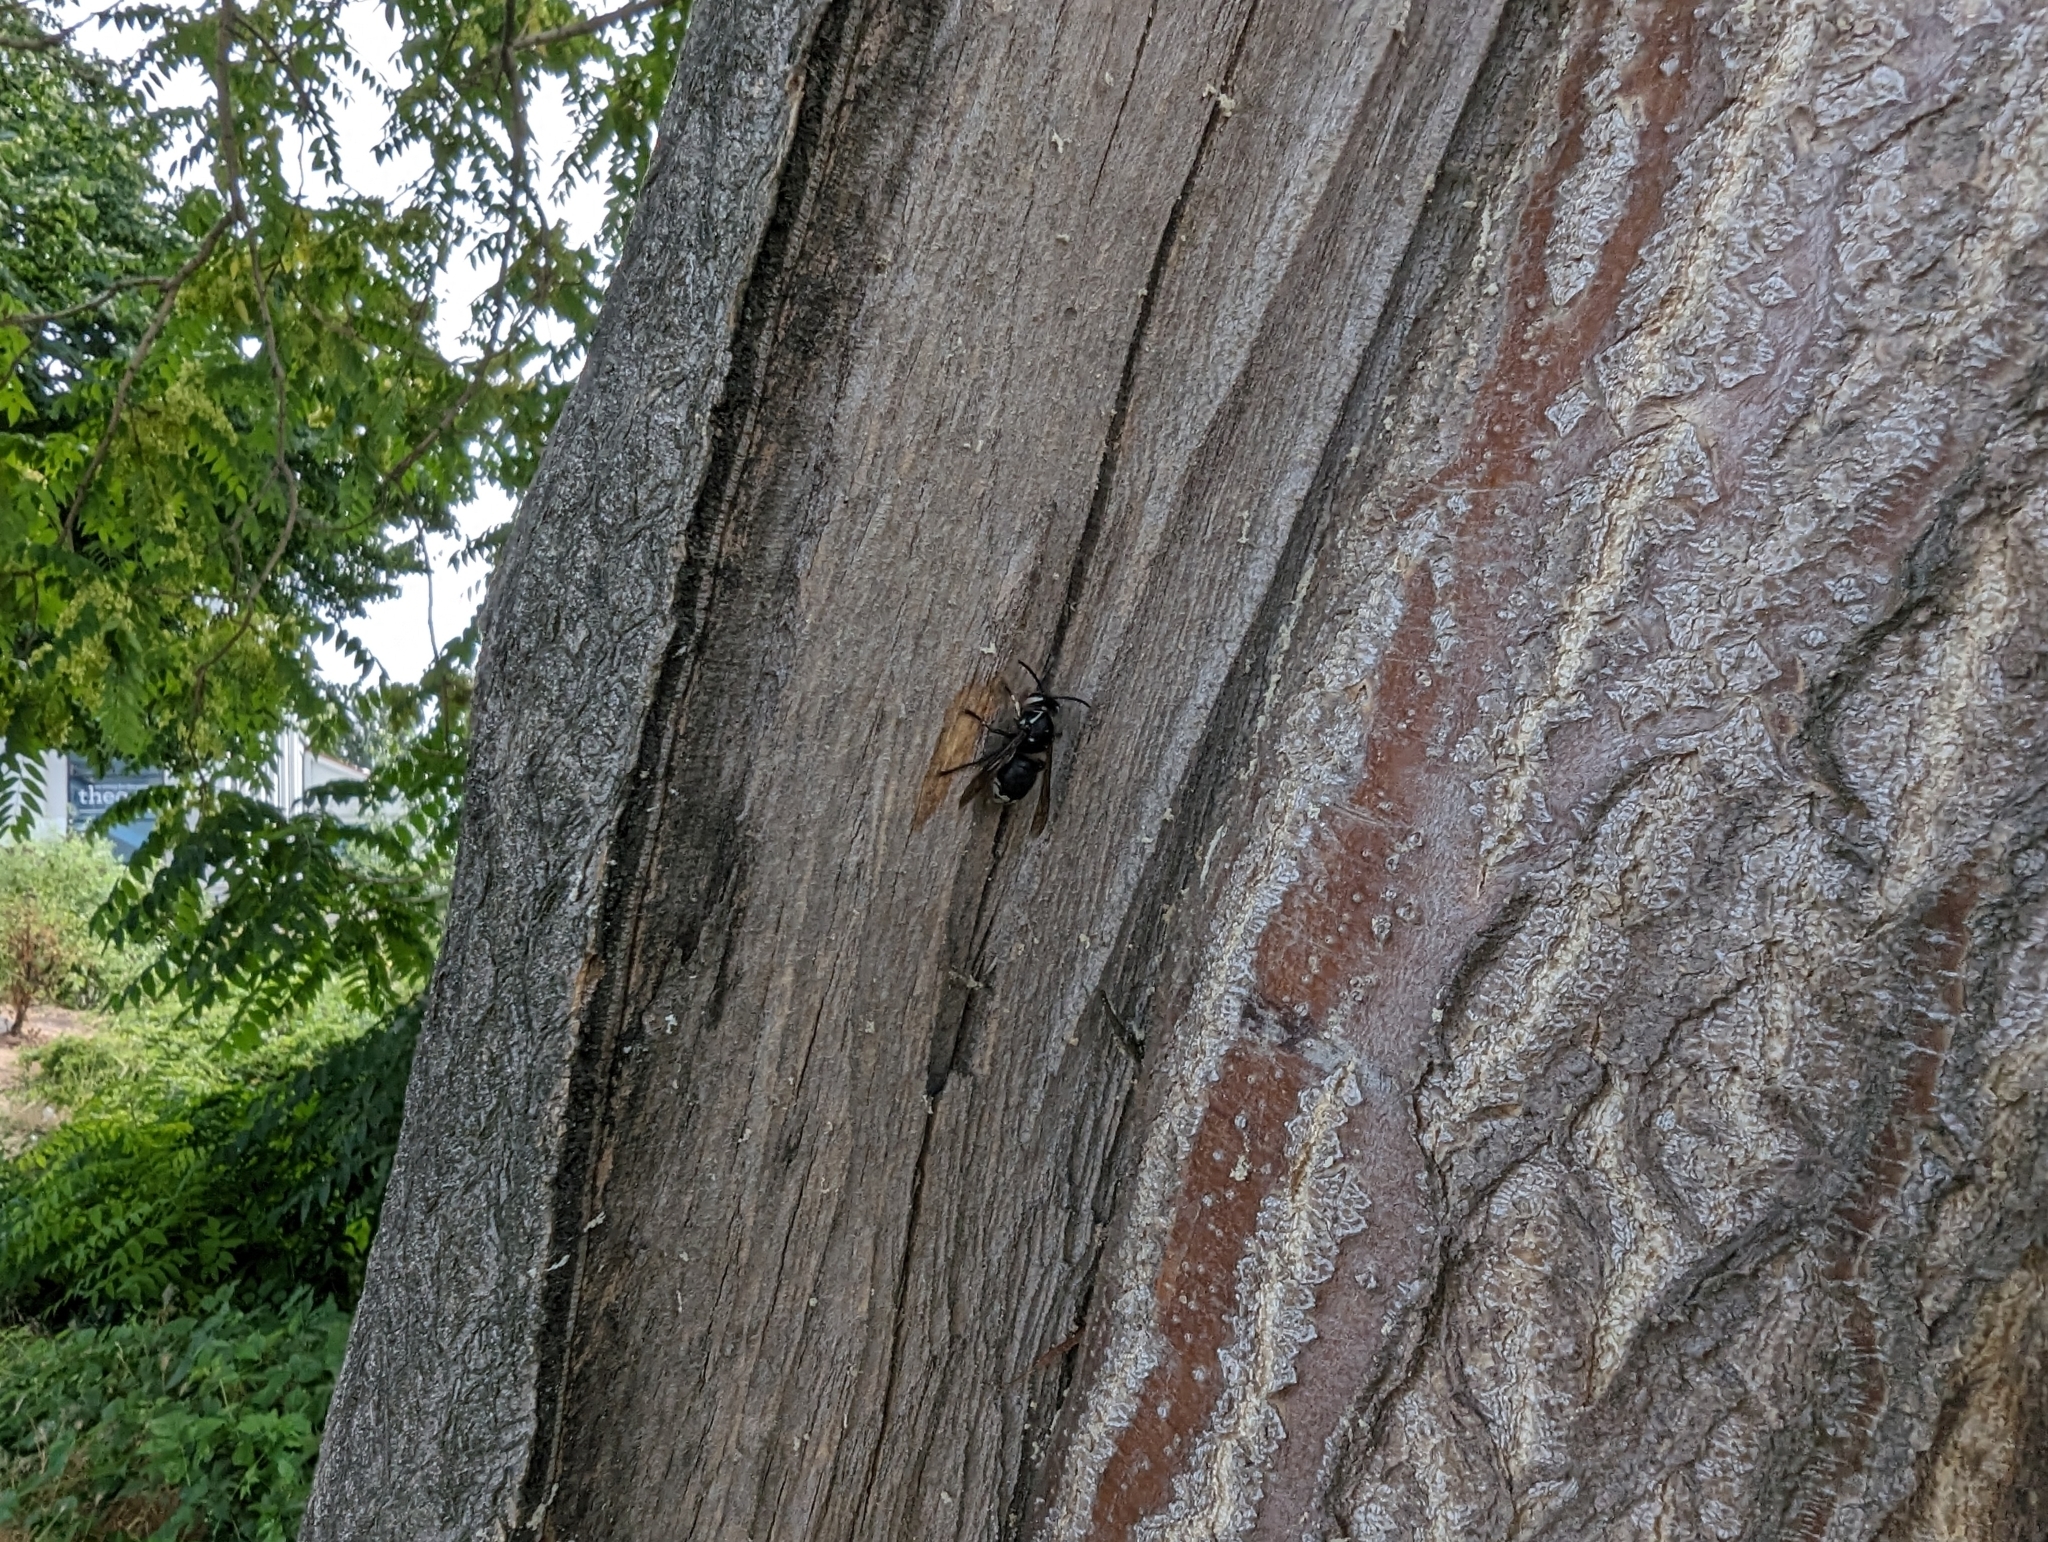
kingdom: Animalia
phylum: Arthropoda
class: Insecta
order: Hymenoptera
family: Vespidae
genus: Dolichovespula
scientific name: Dolichovespula maculata
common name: Bald-faced hornet
